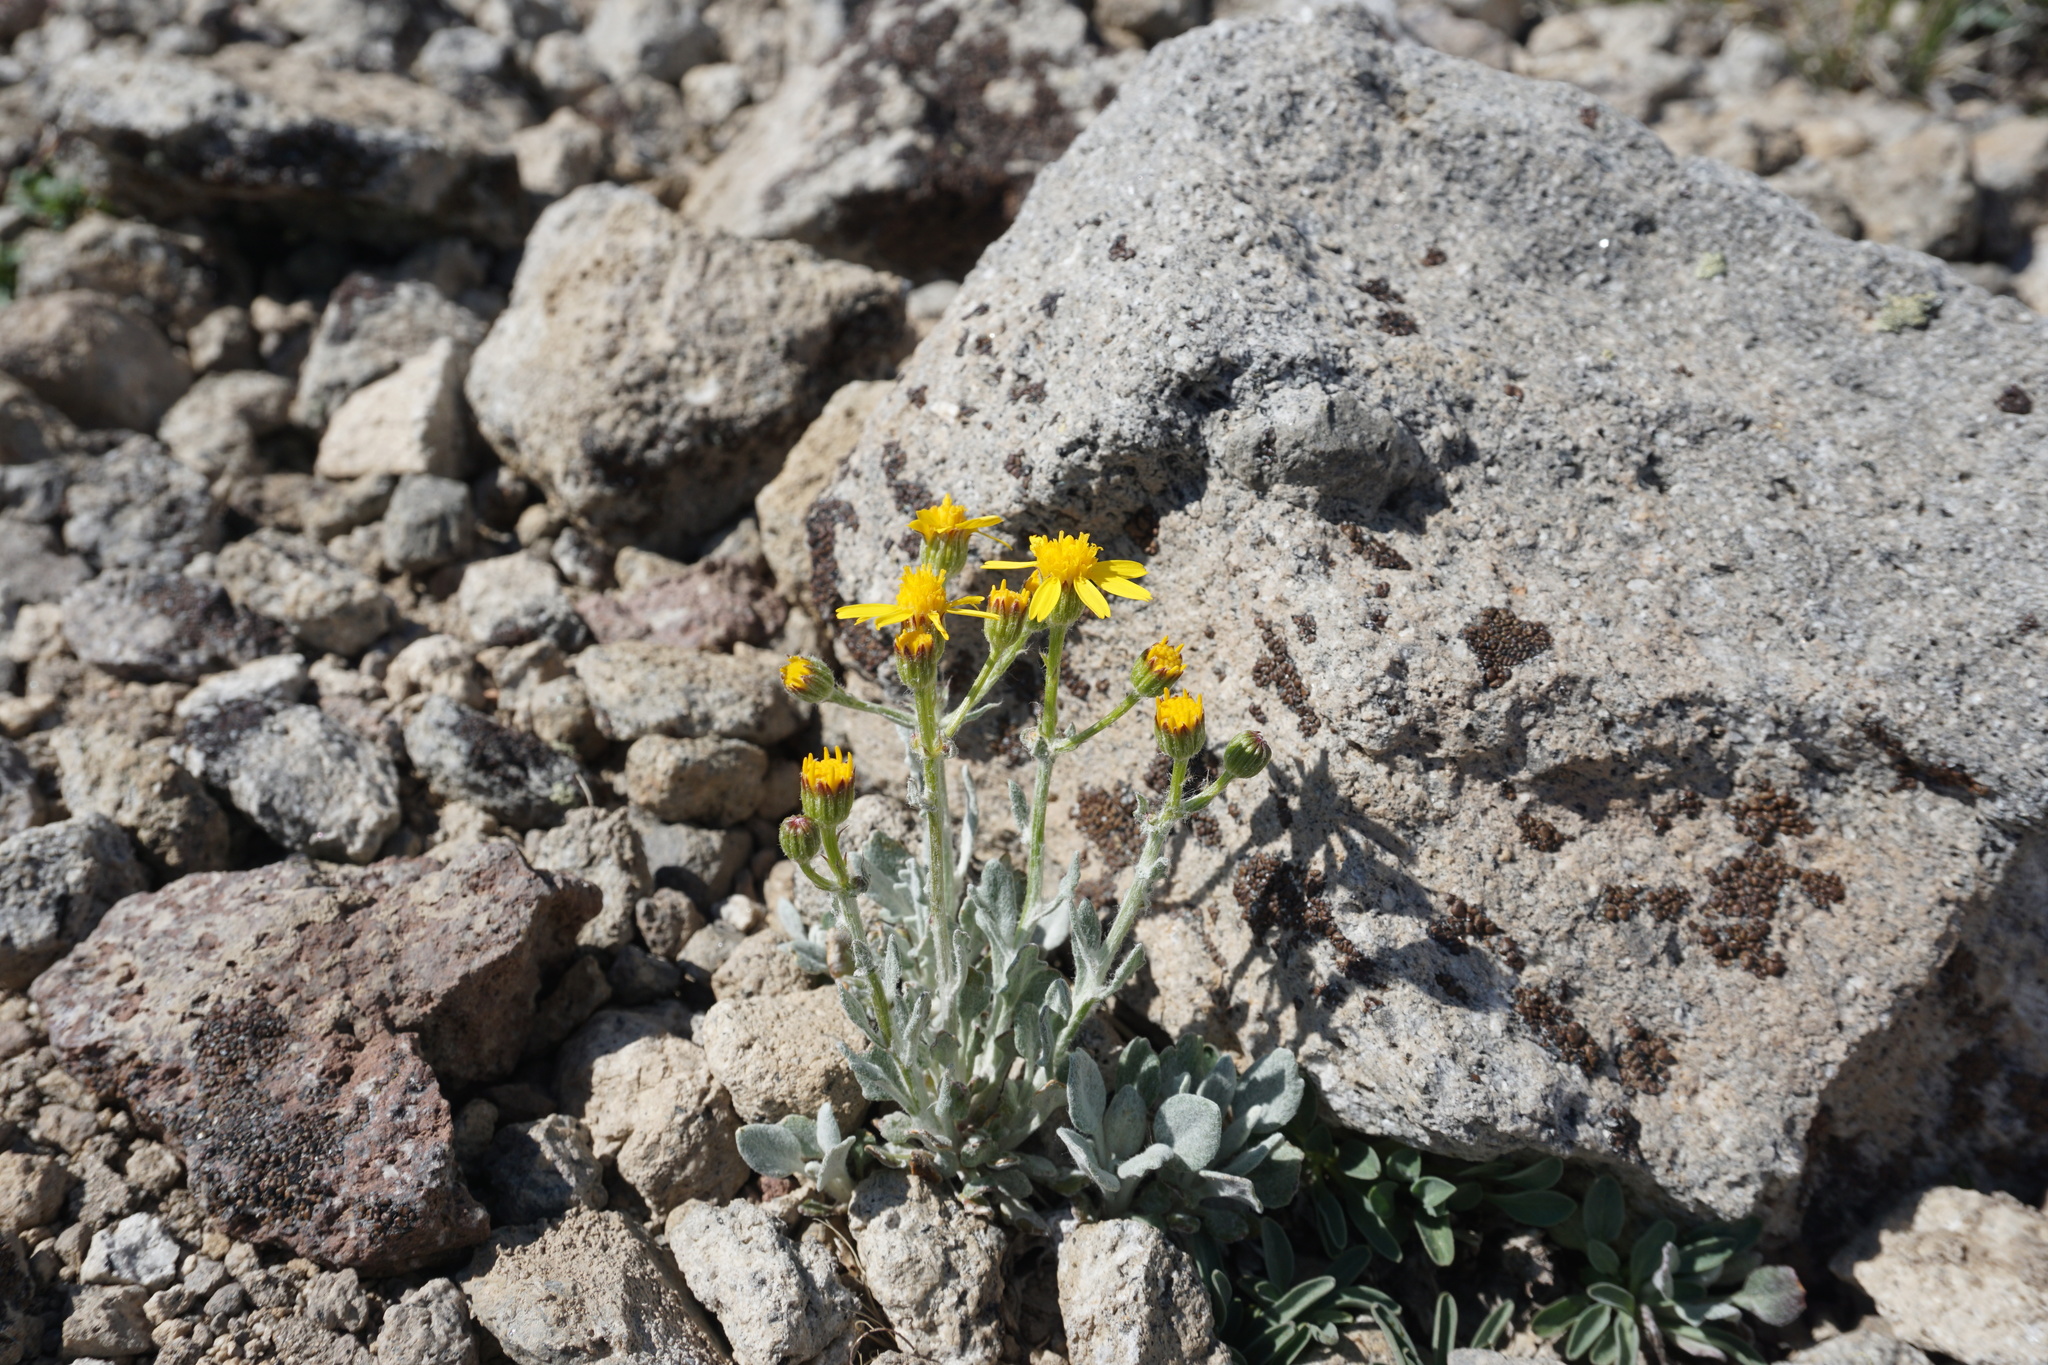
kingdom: Plantae
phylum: Tracheophyta
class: Magnoliopsida
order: Asterales
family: Asteraceae
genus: Packera
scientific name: Packera cana
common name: Woolly groundsel
